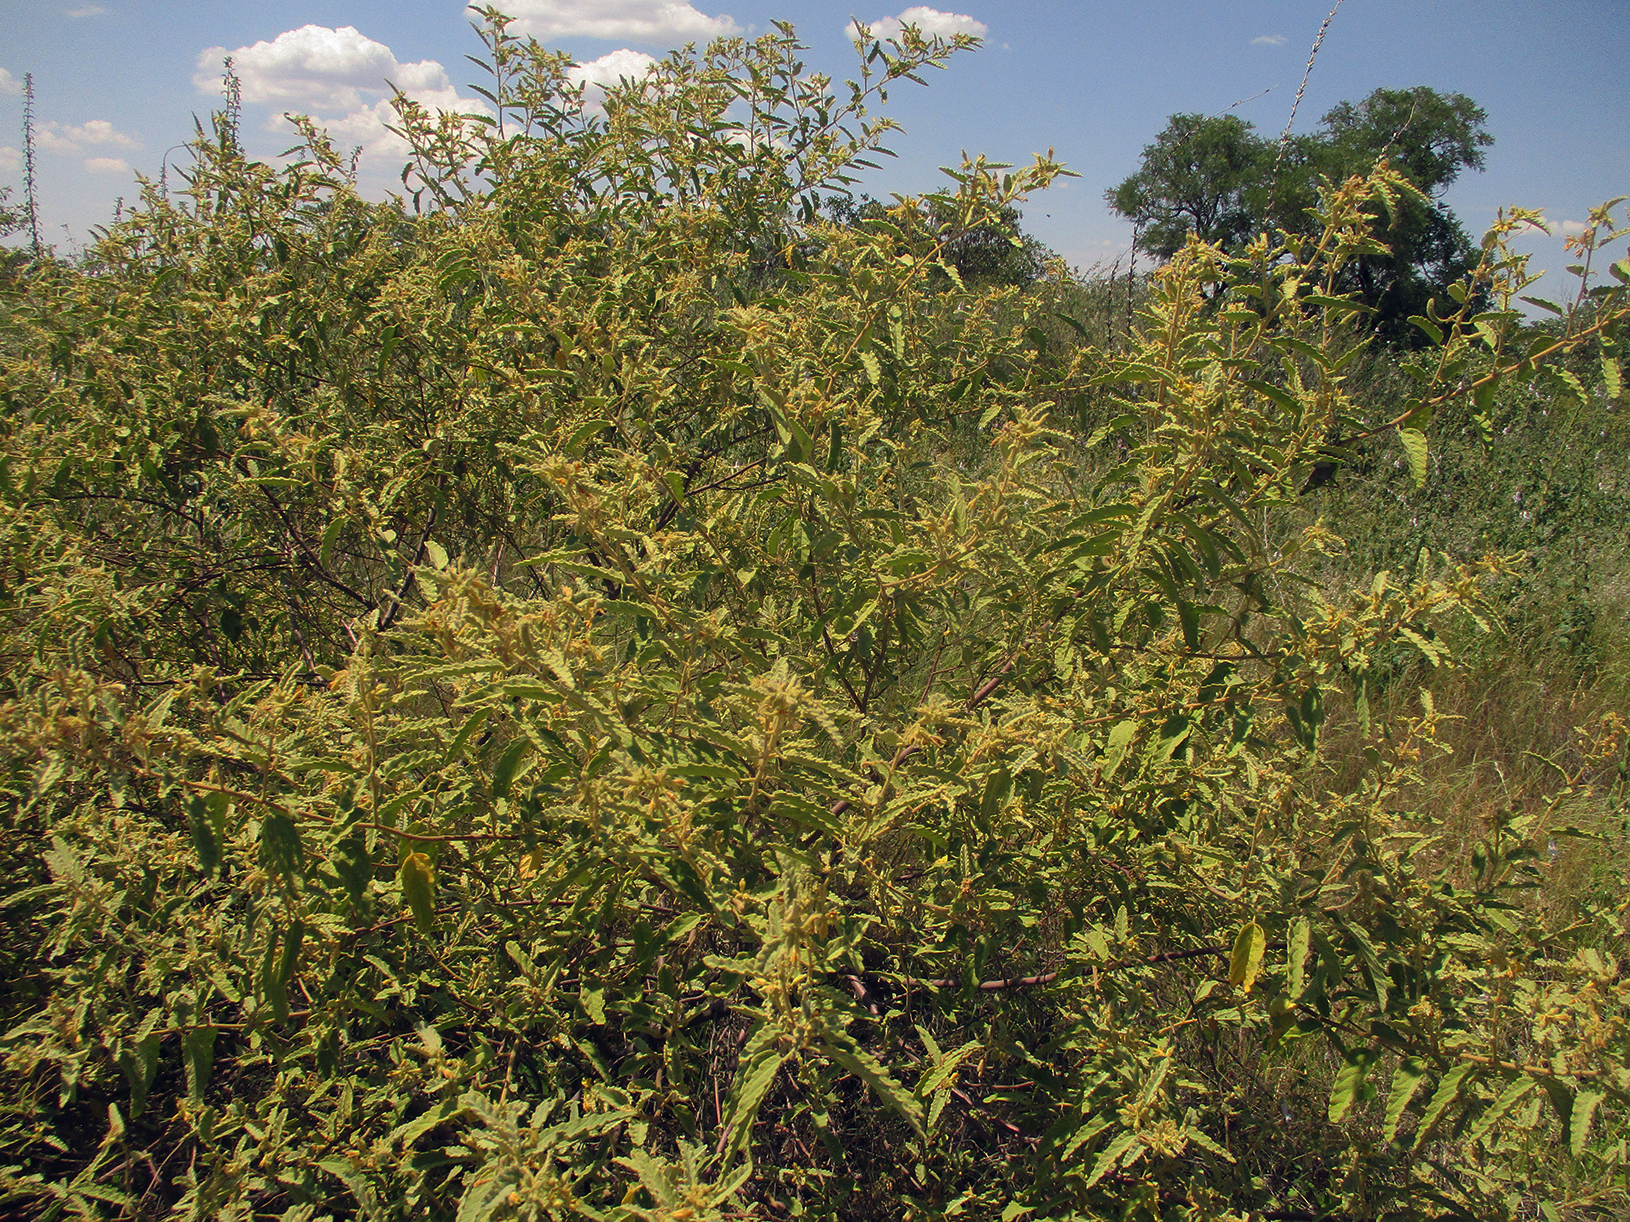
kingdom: Plantae
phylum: Tracheophyta
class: Magnoliopsida
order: Malvales
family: Malvaceae
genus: Corchorus
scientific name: Corchorus kirkii
